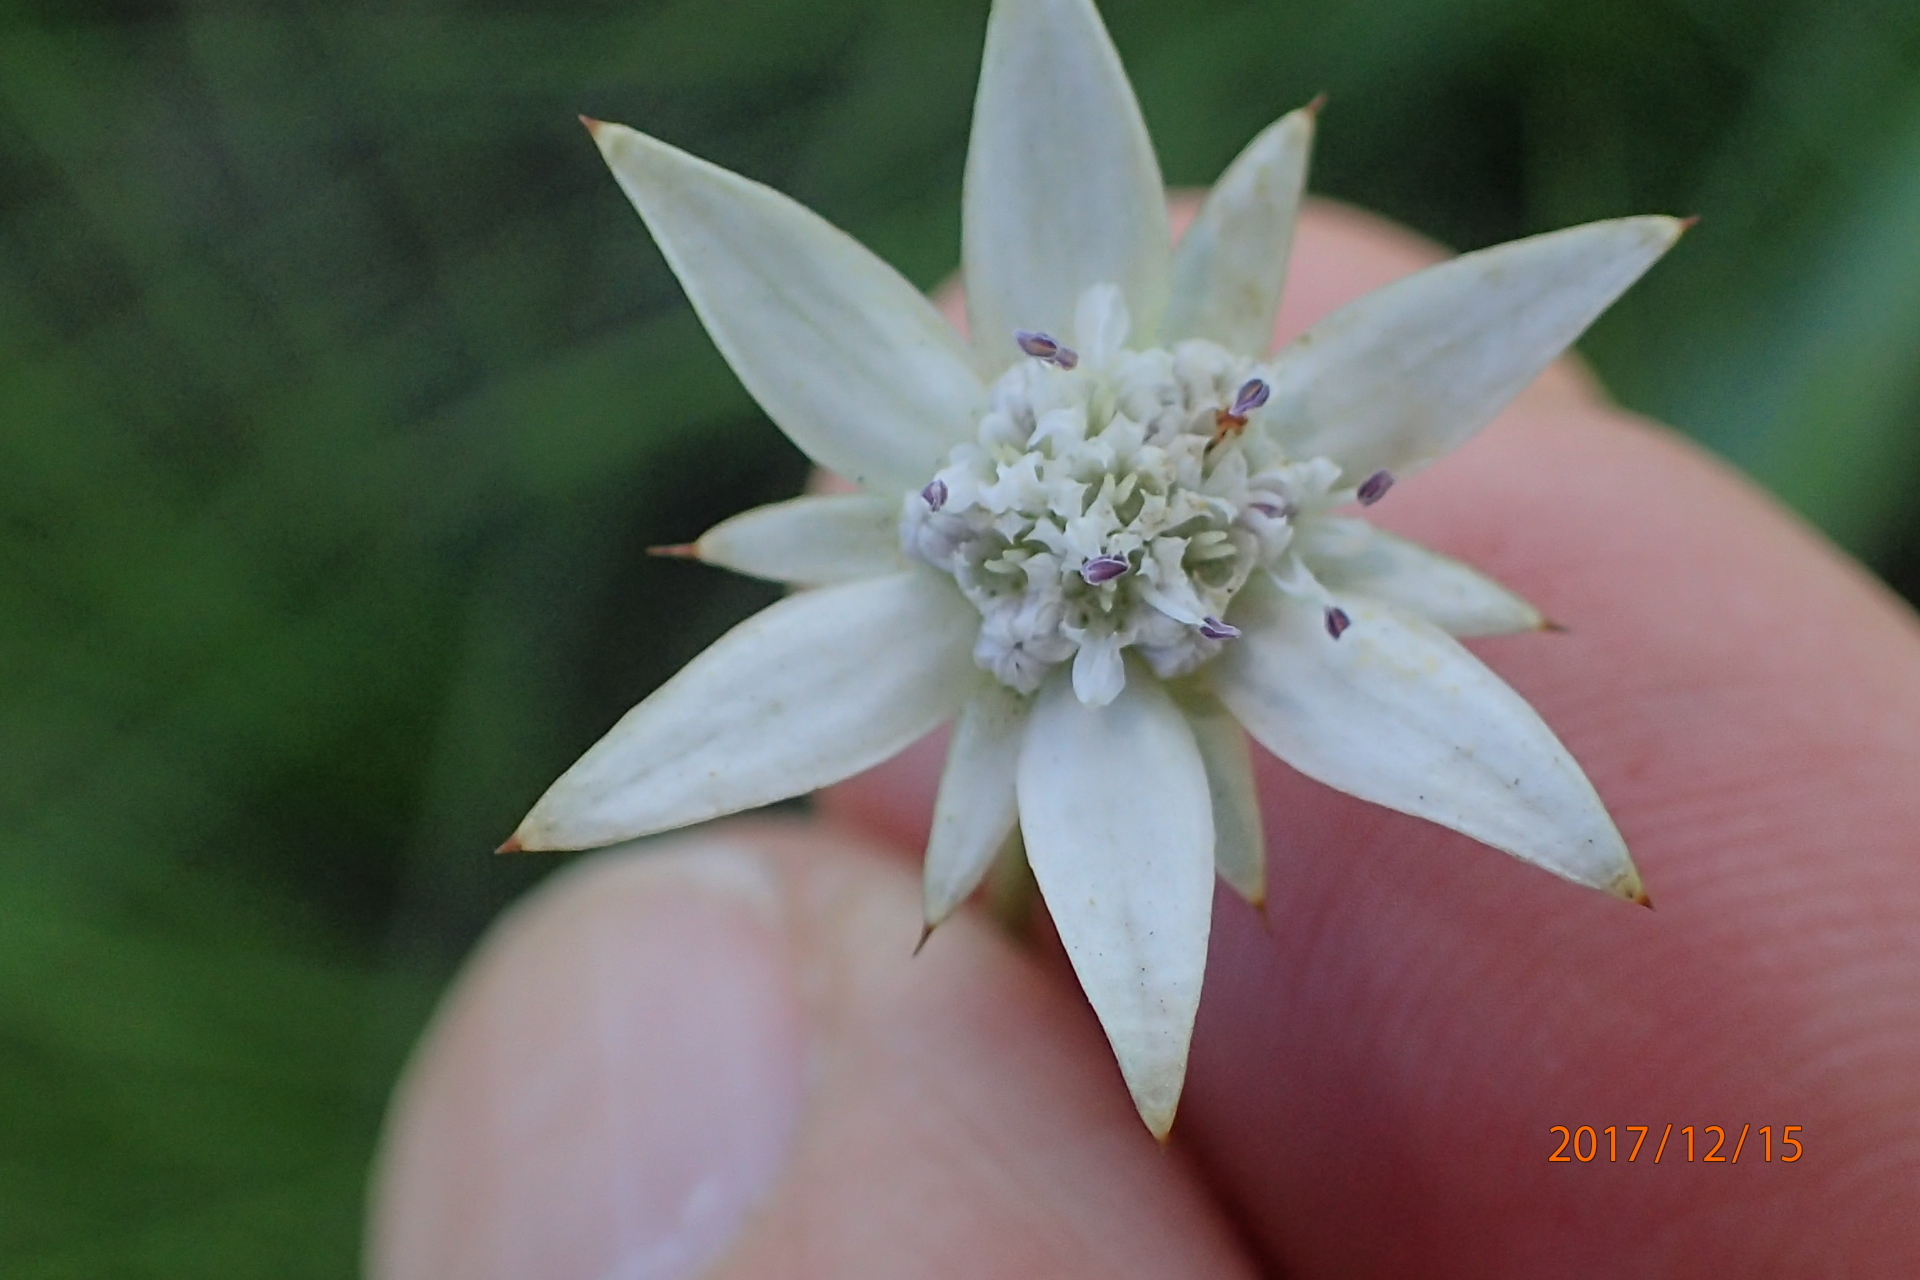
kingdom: Plantae
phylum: Tracheophyta
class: Magnoliopsida
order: Apiales
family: Apiaceae
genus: Alepidea
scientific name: Alepidea peduncularis
